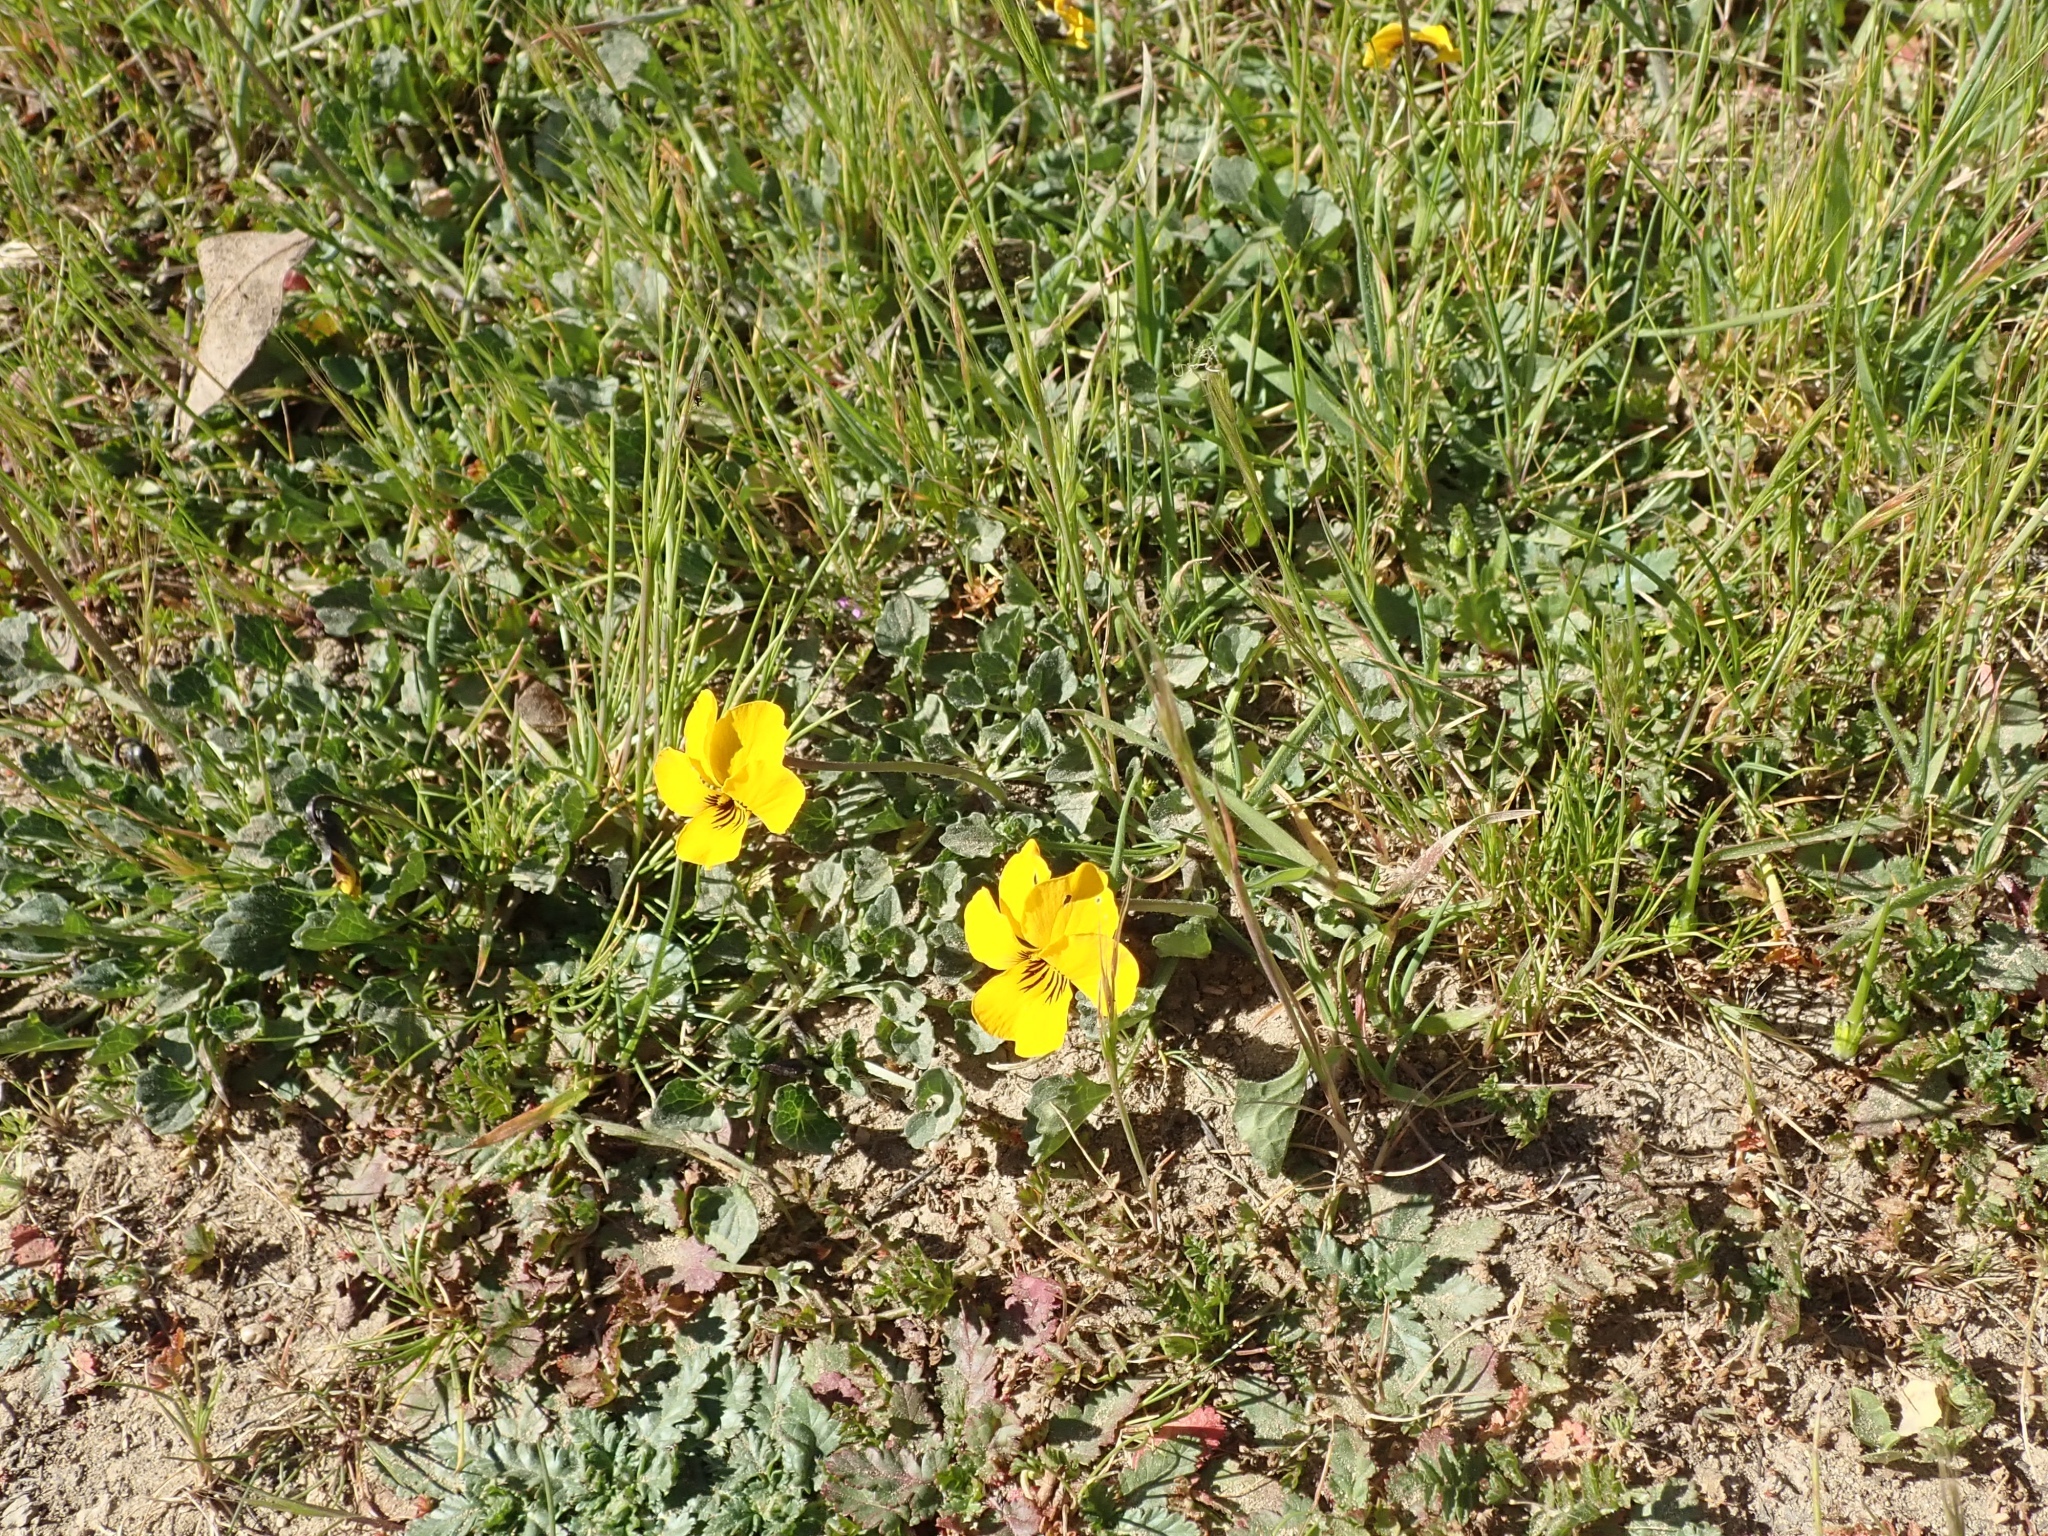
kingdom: Plantae
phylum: Tracheophyta
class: Magnoliopsida
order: Malpighiales
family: Violaceae
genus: Viola
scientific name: Viola pedunculata
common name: California golden violet
